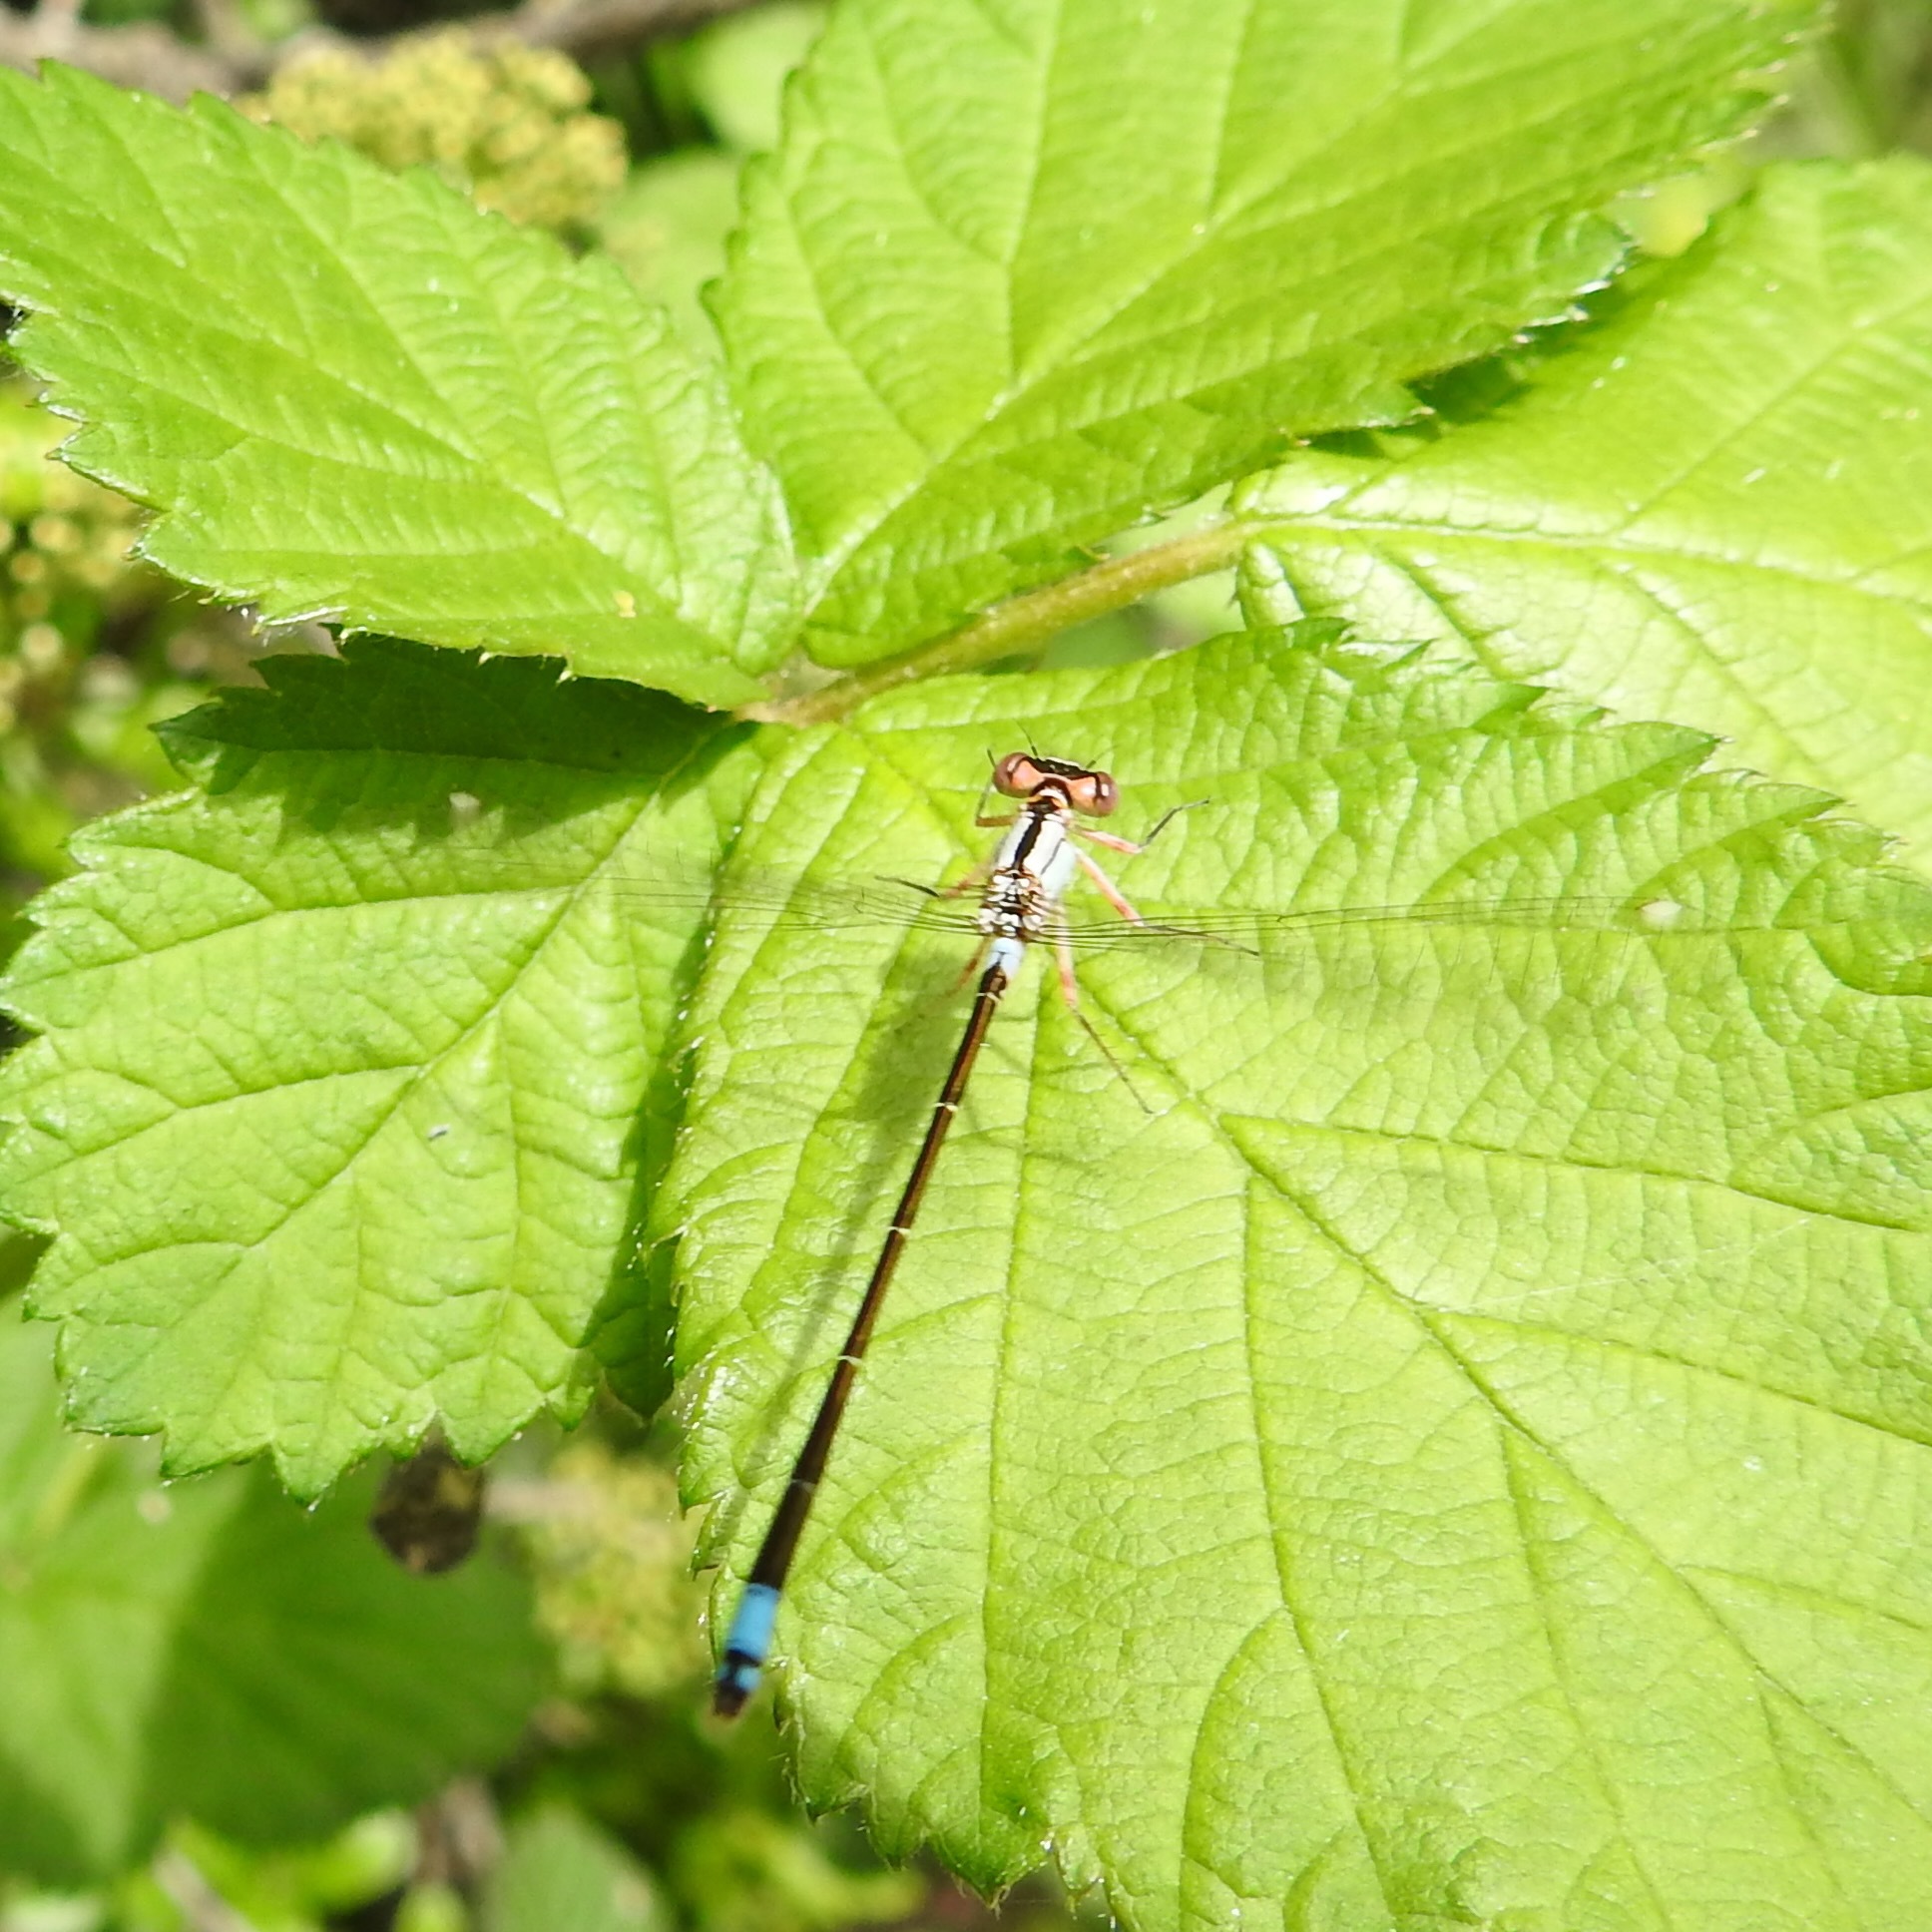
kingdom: Animalia
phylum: Arthropoda
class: Insecta
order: Odonata
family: Coenagrionidae
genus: Ischnura
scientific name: Ischnura cervula
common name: Pacific forktail
